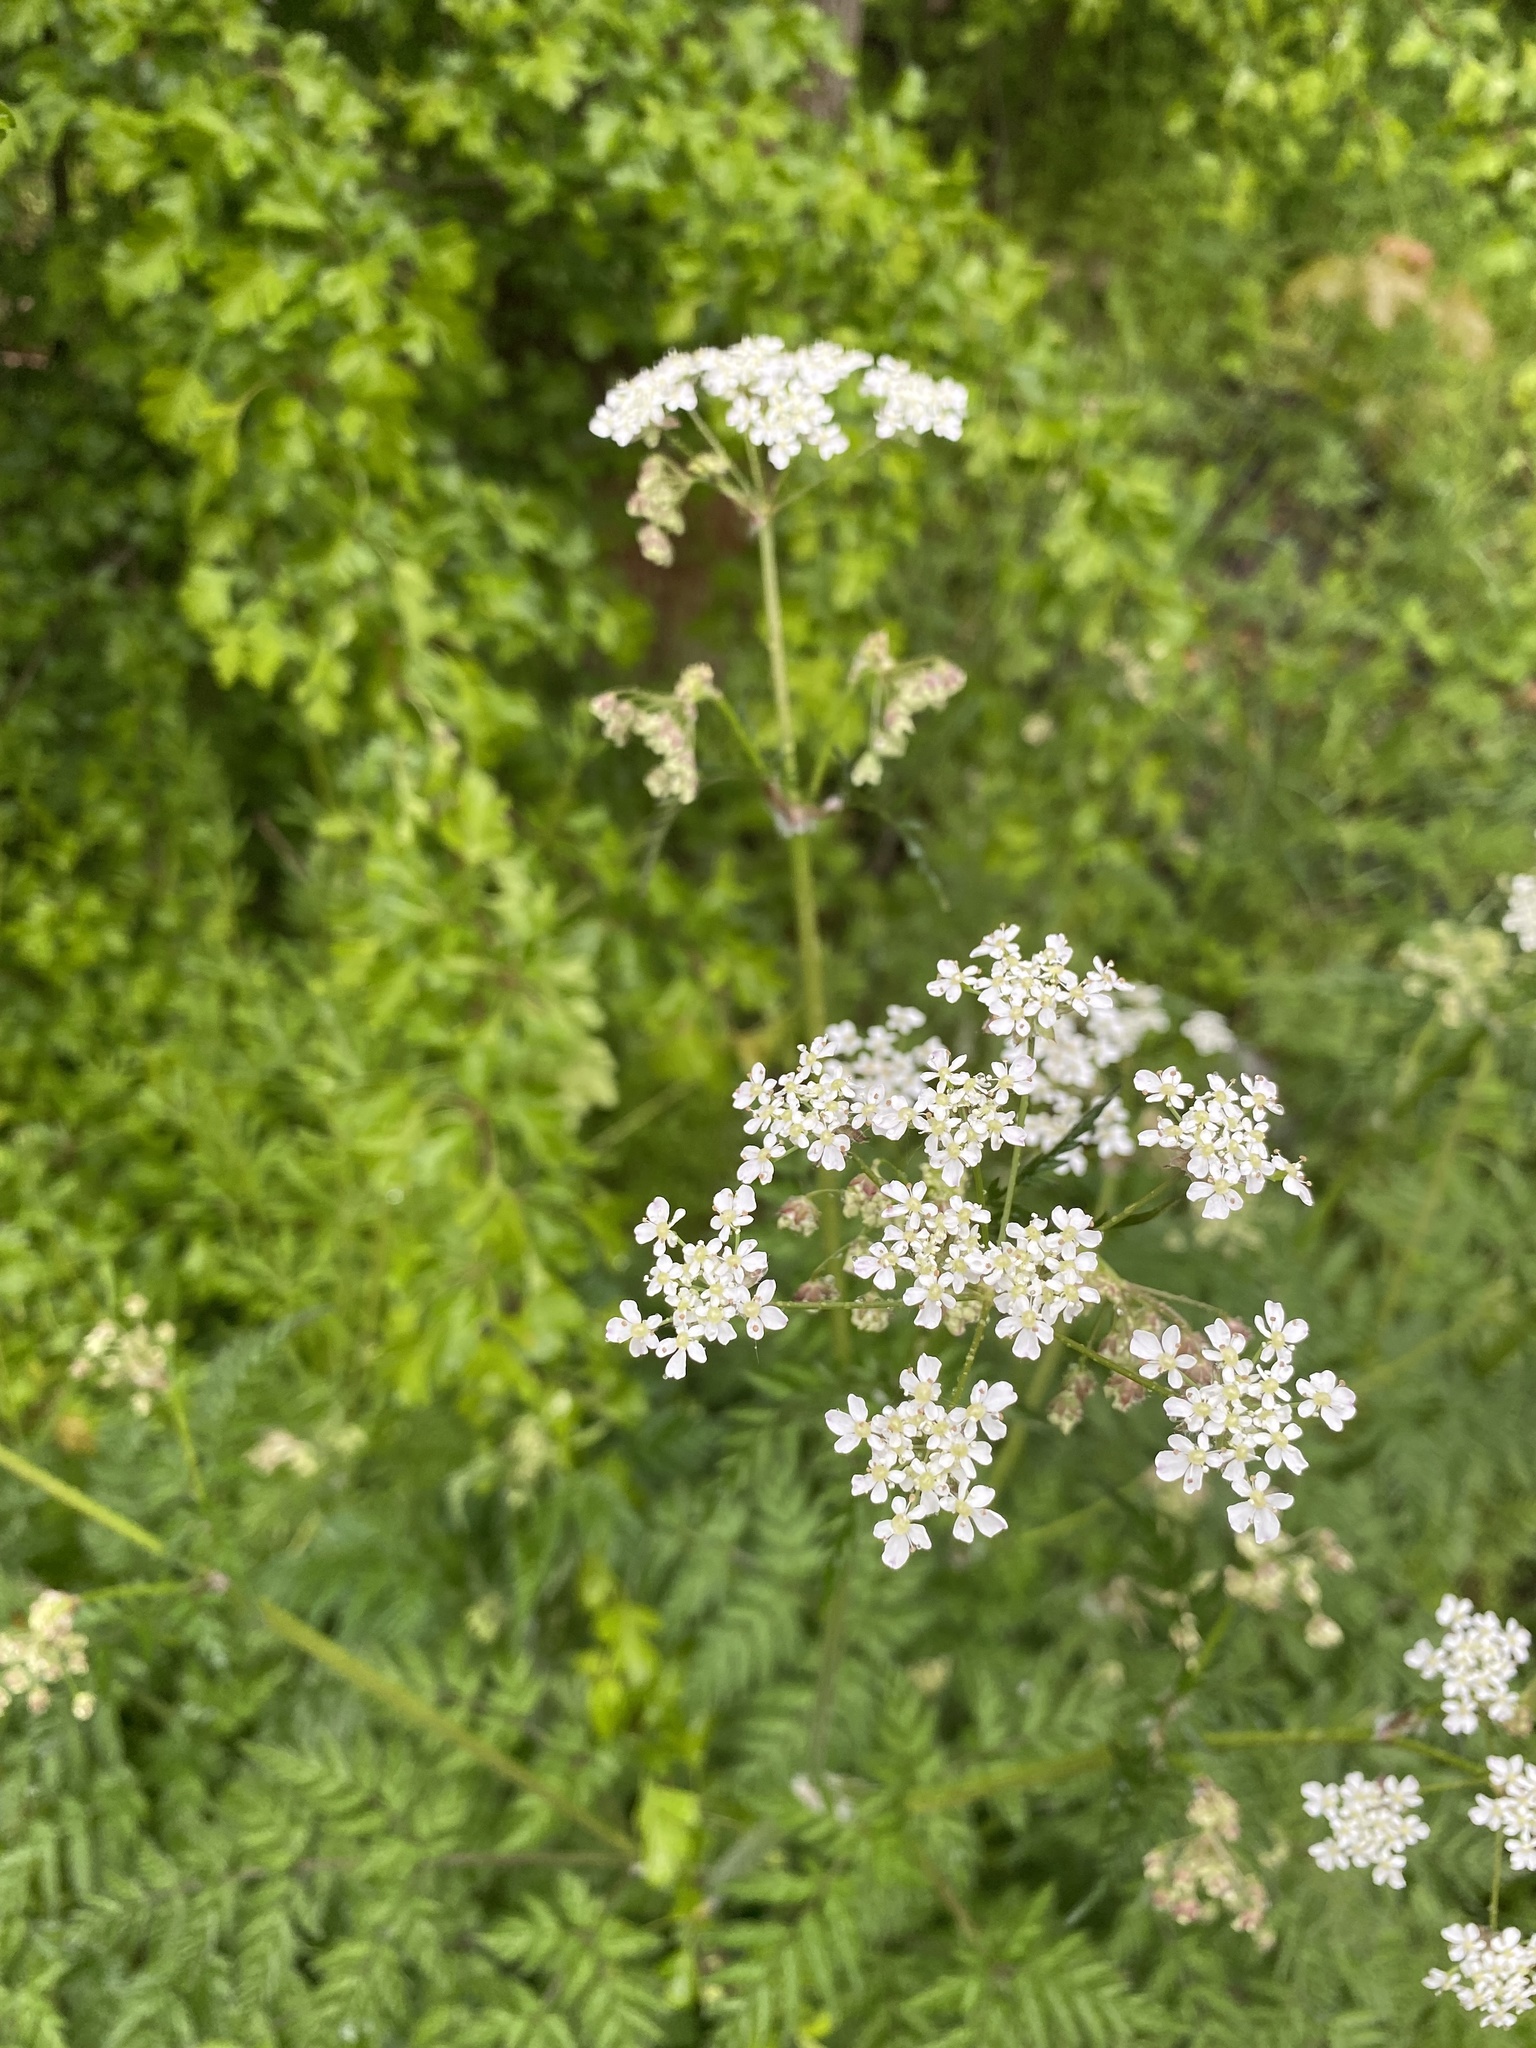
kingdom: Plantae
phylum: Tracheophyta
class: Magnoliopsida
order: Apiales
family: Apiaceae
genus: Anthriscus
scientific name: Anthriscus sylvestris
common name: Cow parsley
